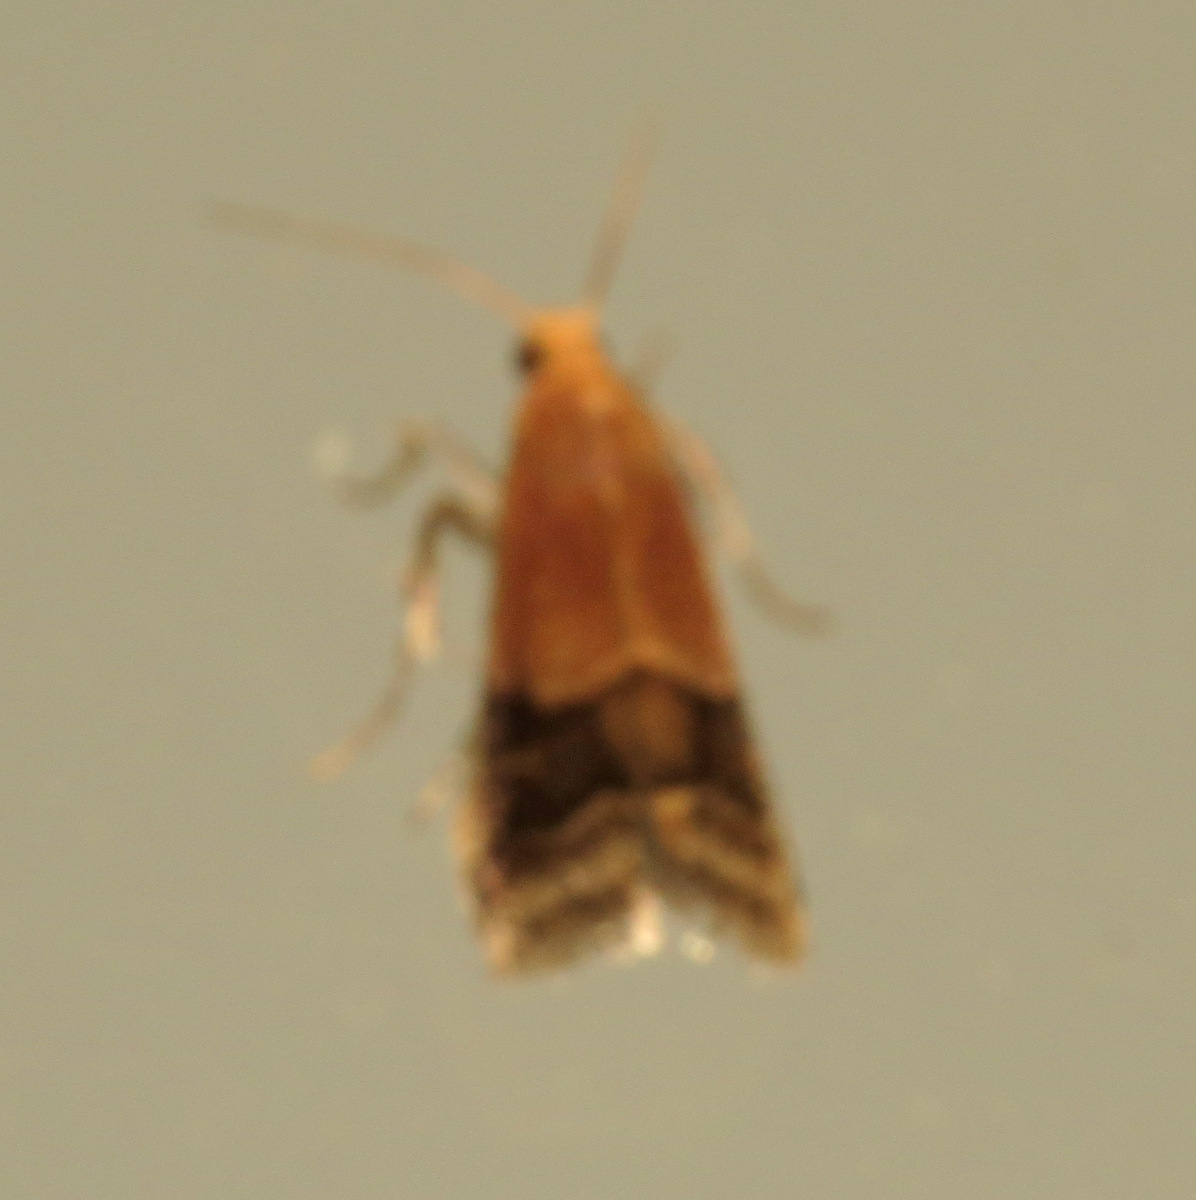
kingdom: Animalia
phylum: Arthropoda
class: Insecta
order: Lepidoptera
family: Pyralidae
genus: Eulogia
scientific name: Eulogia ochrifrontella
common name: Broad-banded eulogia moth
